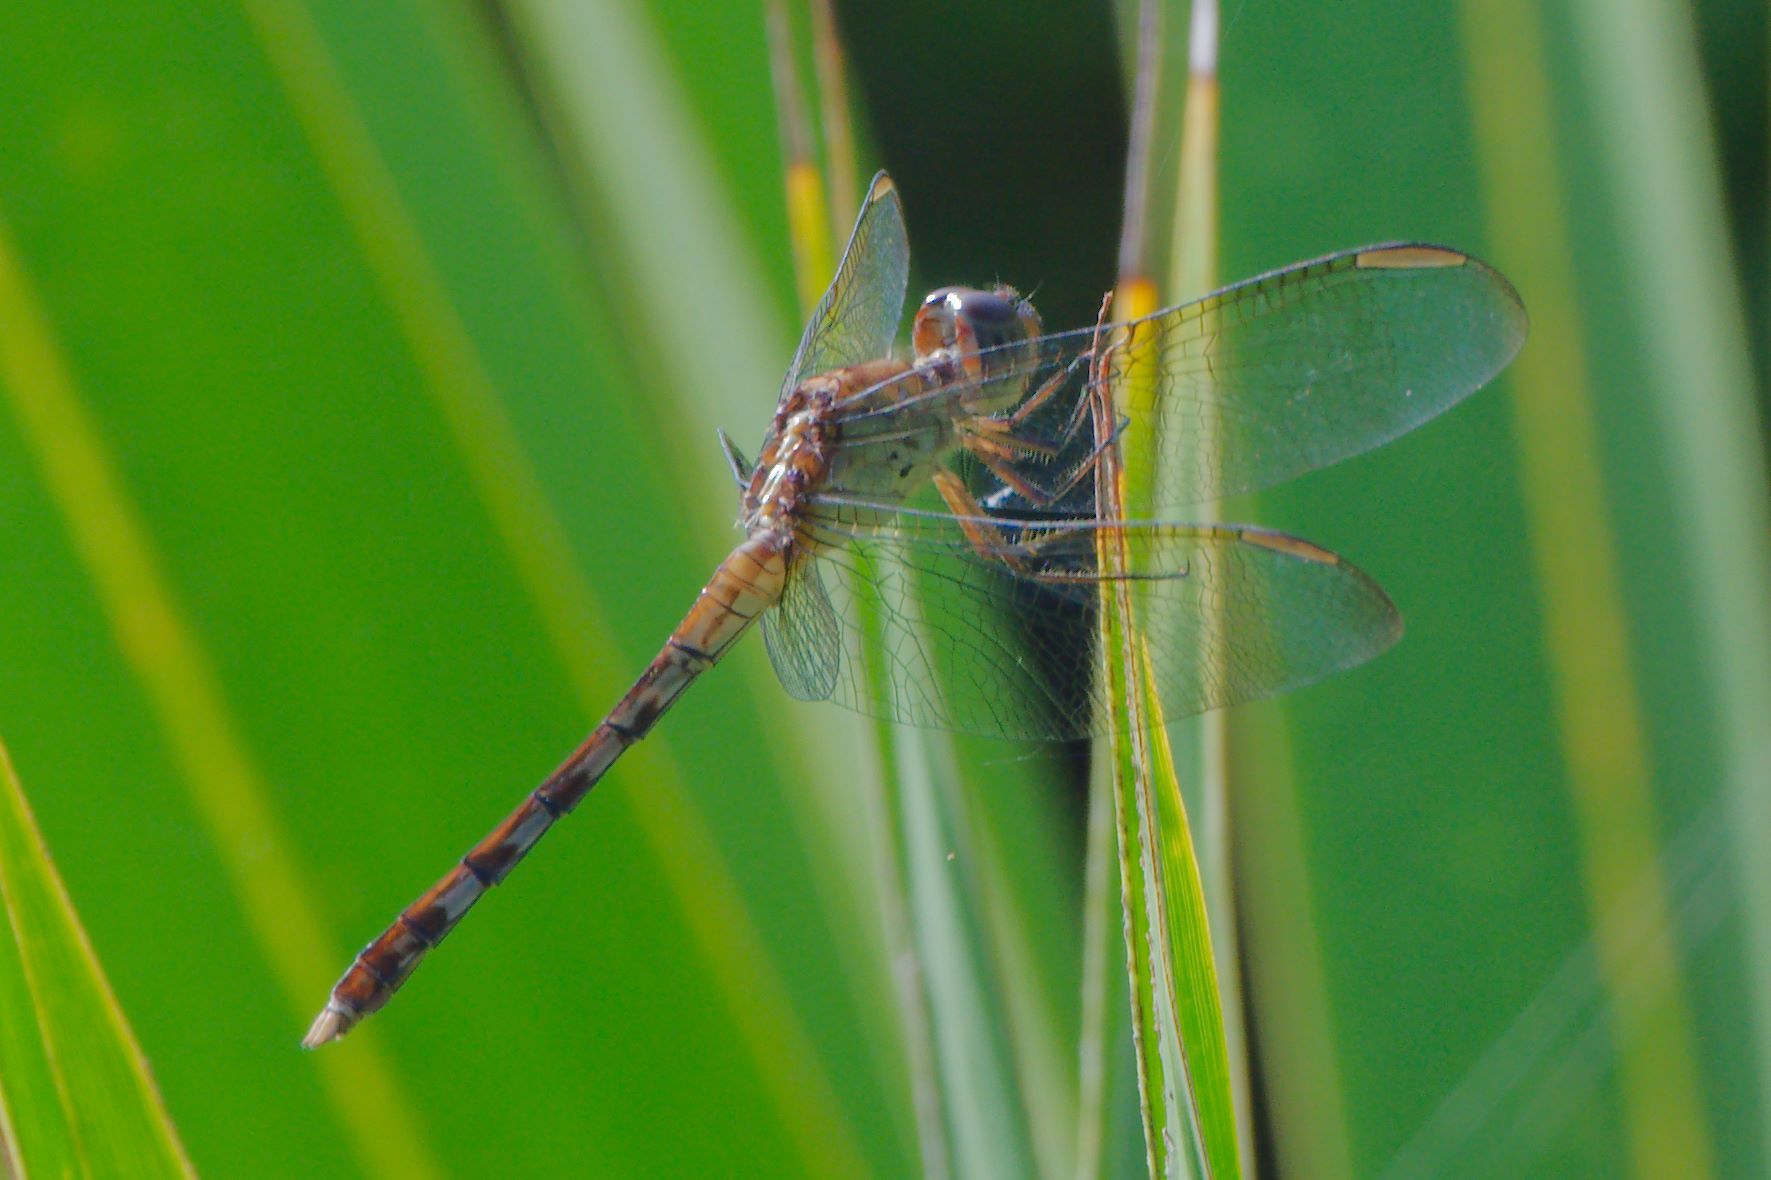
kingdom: Animalia
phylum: Arthropoda
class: Insecta
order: Odonata
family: Libellulidae
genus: Erythrodiplax
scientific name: Erythrodiplax umbrata
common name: Band-winged dragonlet
